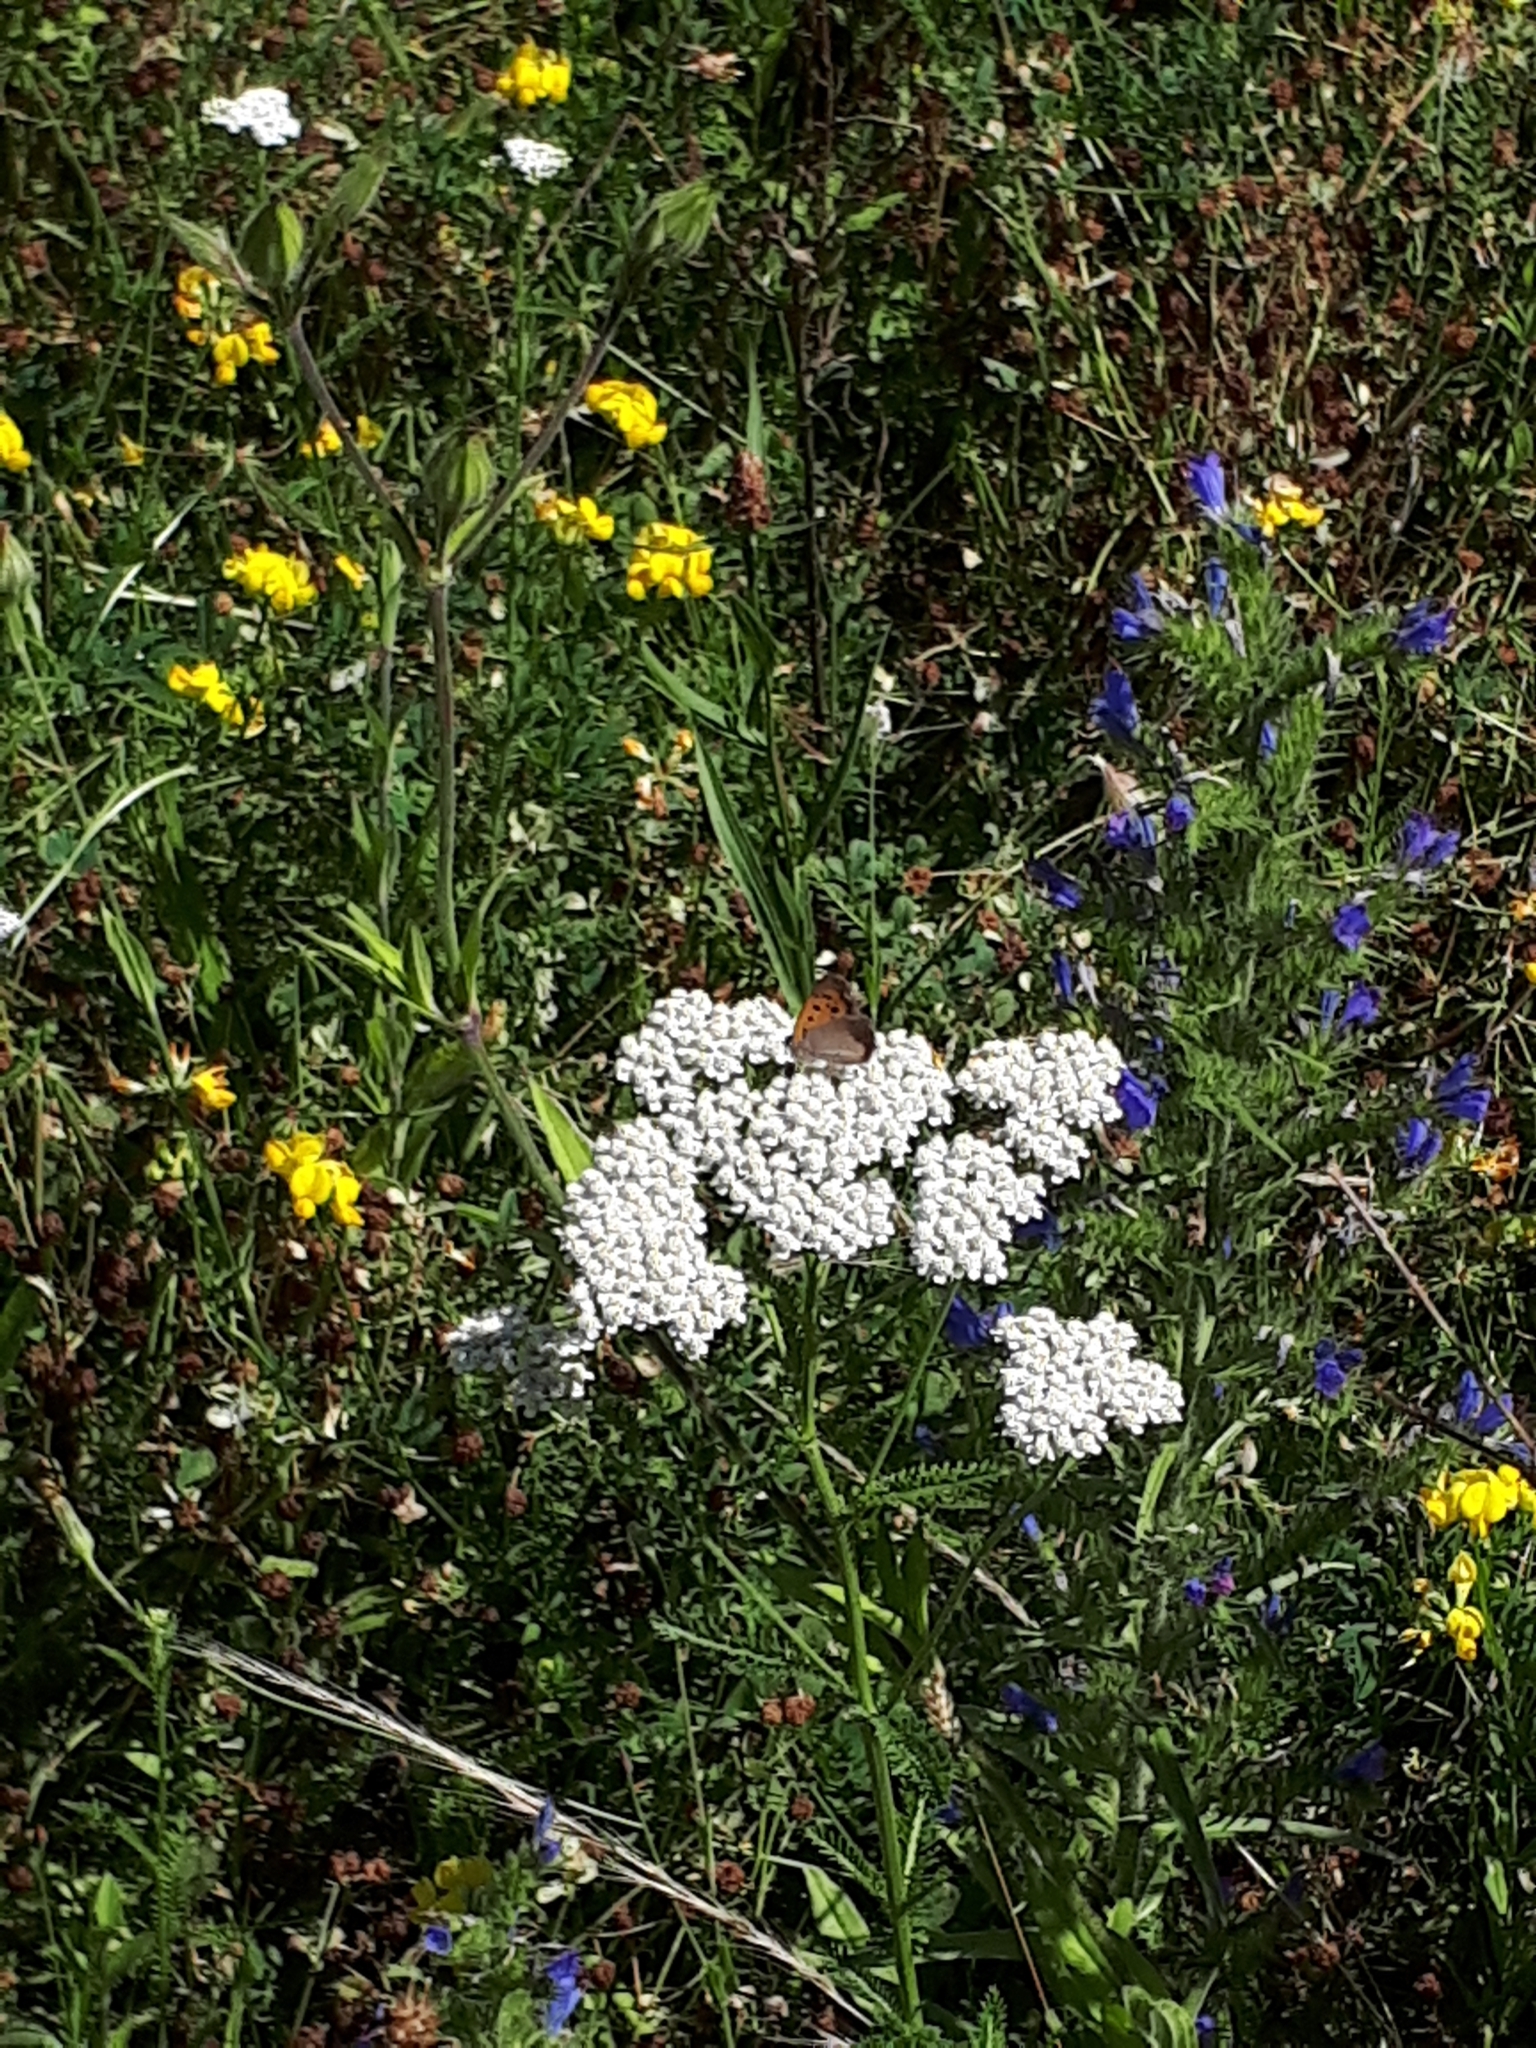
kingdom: Animalia
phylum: Arthropoda
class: Insecta
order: Lepidoptera
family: Lycaenidae
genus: Lycaena
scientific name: Lycaena phlaeas
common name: Small copper
